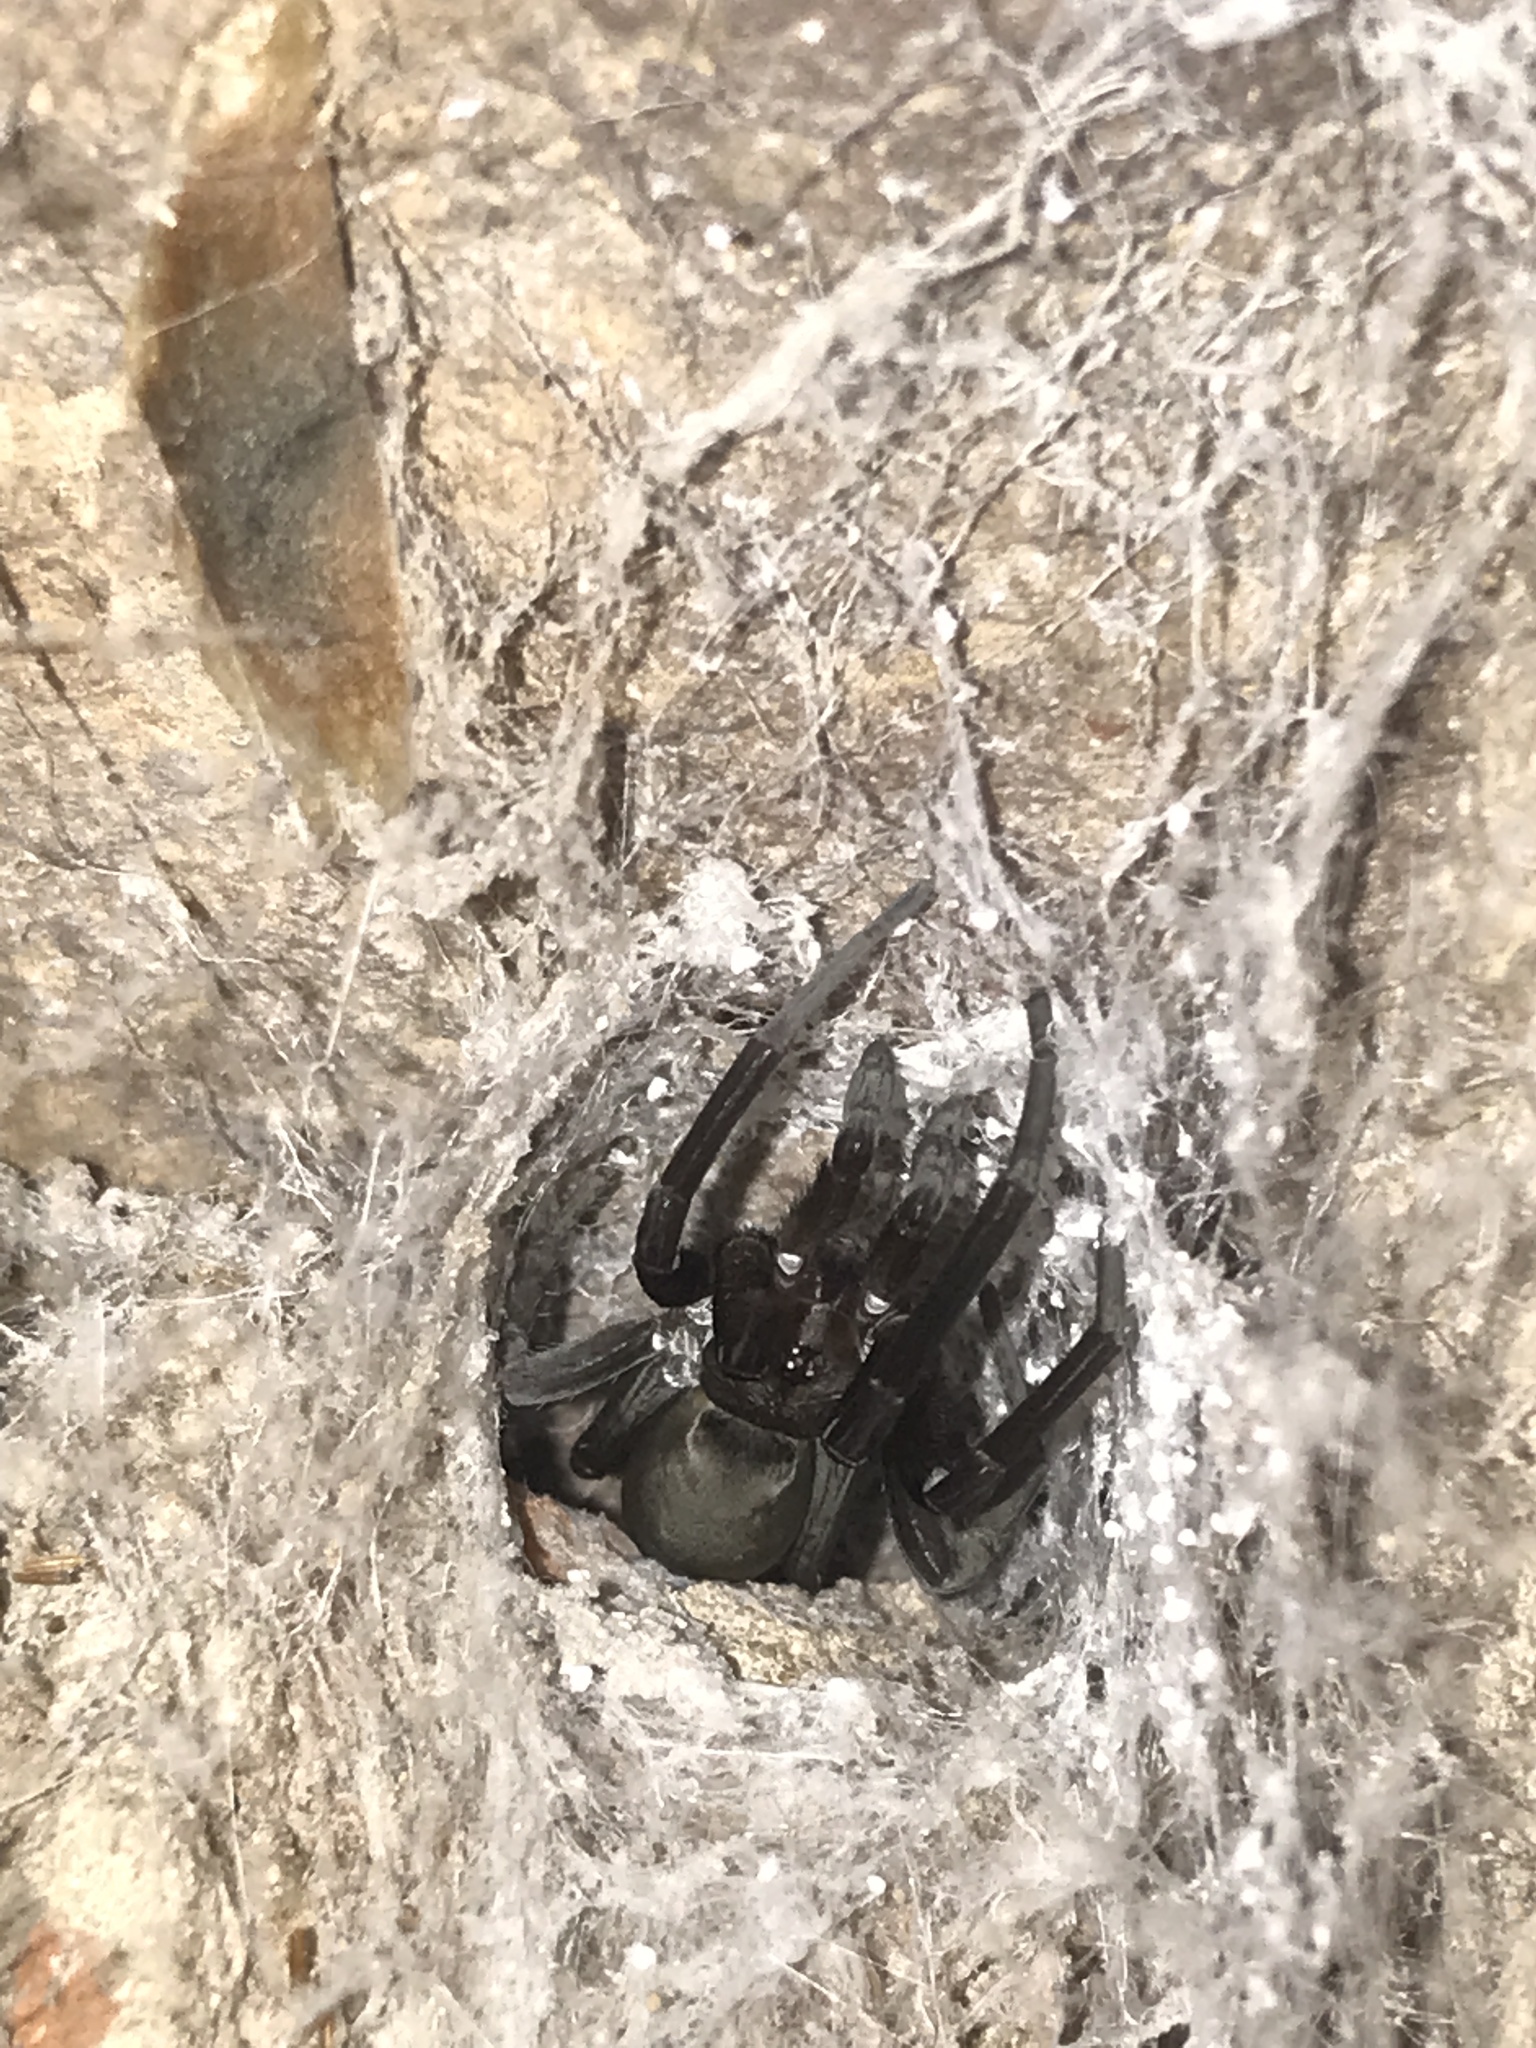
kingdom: Animalia
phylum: Arthropoda
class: Arachnida
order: Araneae
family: Filistatidae
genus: Kukulcania
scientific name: Kukulcania hibernalis
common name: Crevice weaver
